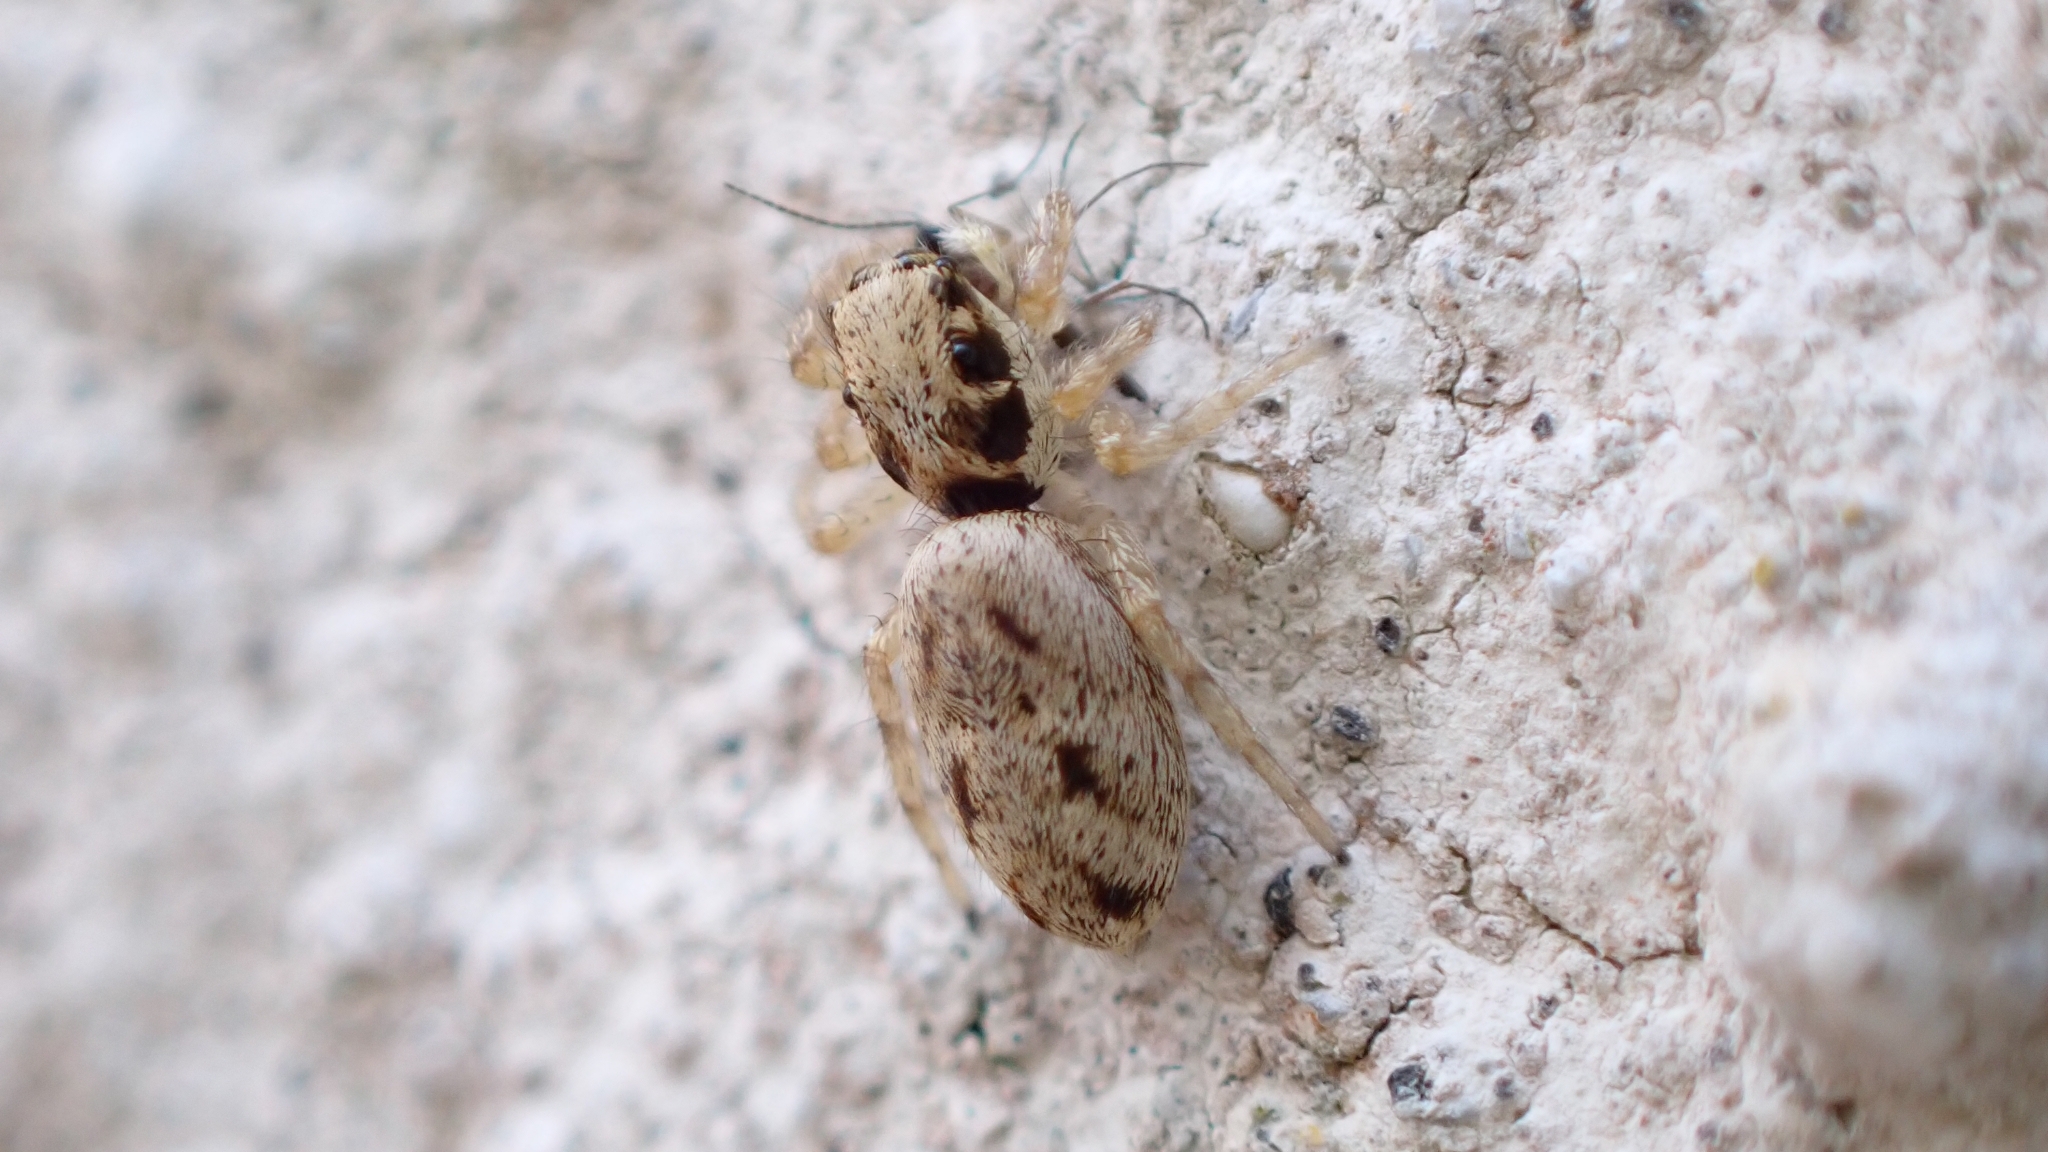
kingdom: Animalia
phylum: Arthropoda
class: Arachnida
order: Araneae
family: Salticidae
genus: Salticus
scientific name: Salticus mutabilis
